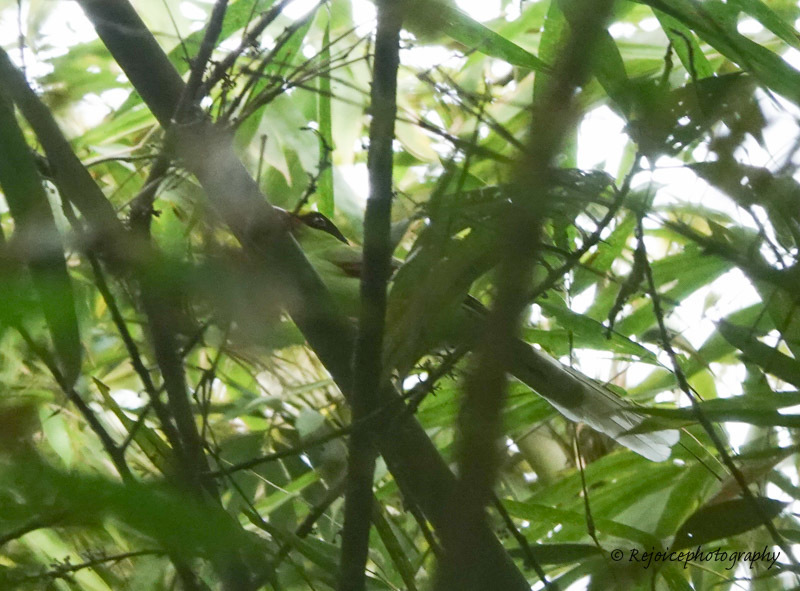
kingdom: Animalia
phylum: Chordata
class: Aves
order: Passeriformes
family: Corvidae
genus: Cissa
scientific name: Cissa chinensis
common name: Common green magpie
